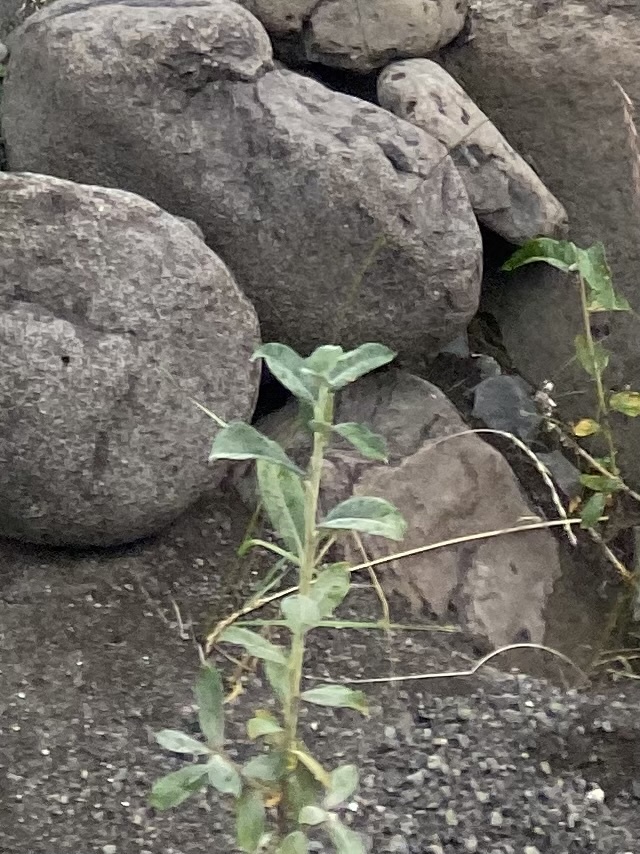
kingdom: Plantae
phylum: Tracheophyta
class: Magnoliopsida
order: Malpighiales
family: Salicaceae
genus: Salix
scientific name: Salix alaxensis
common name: Feltleaf willow
